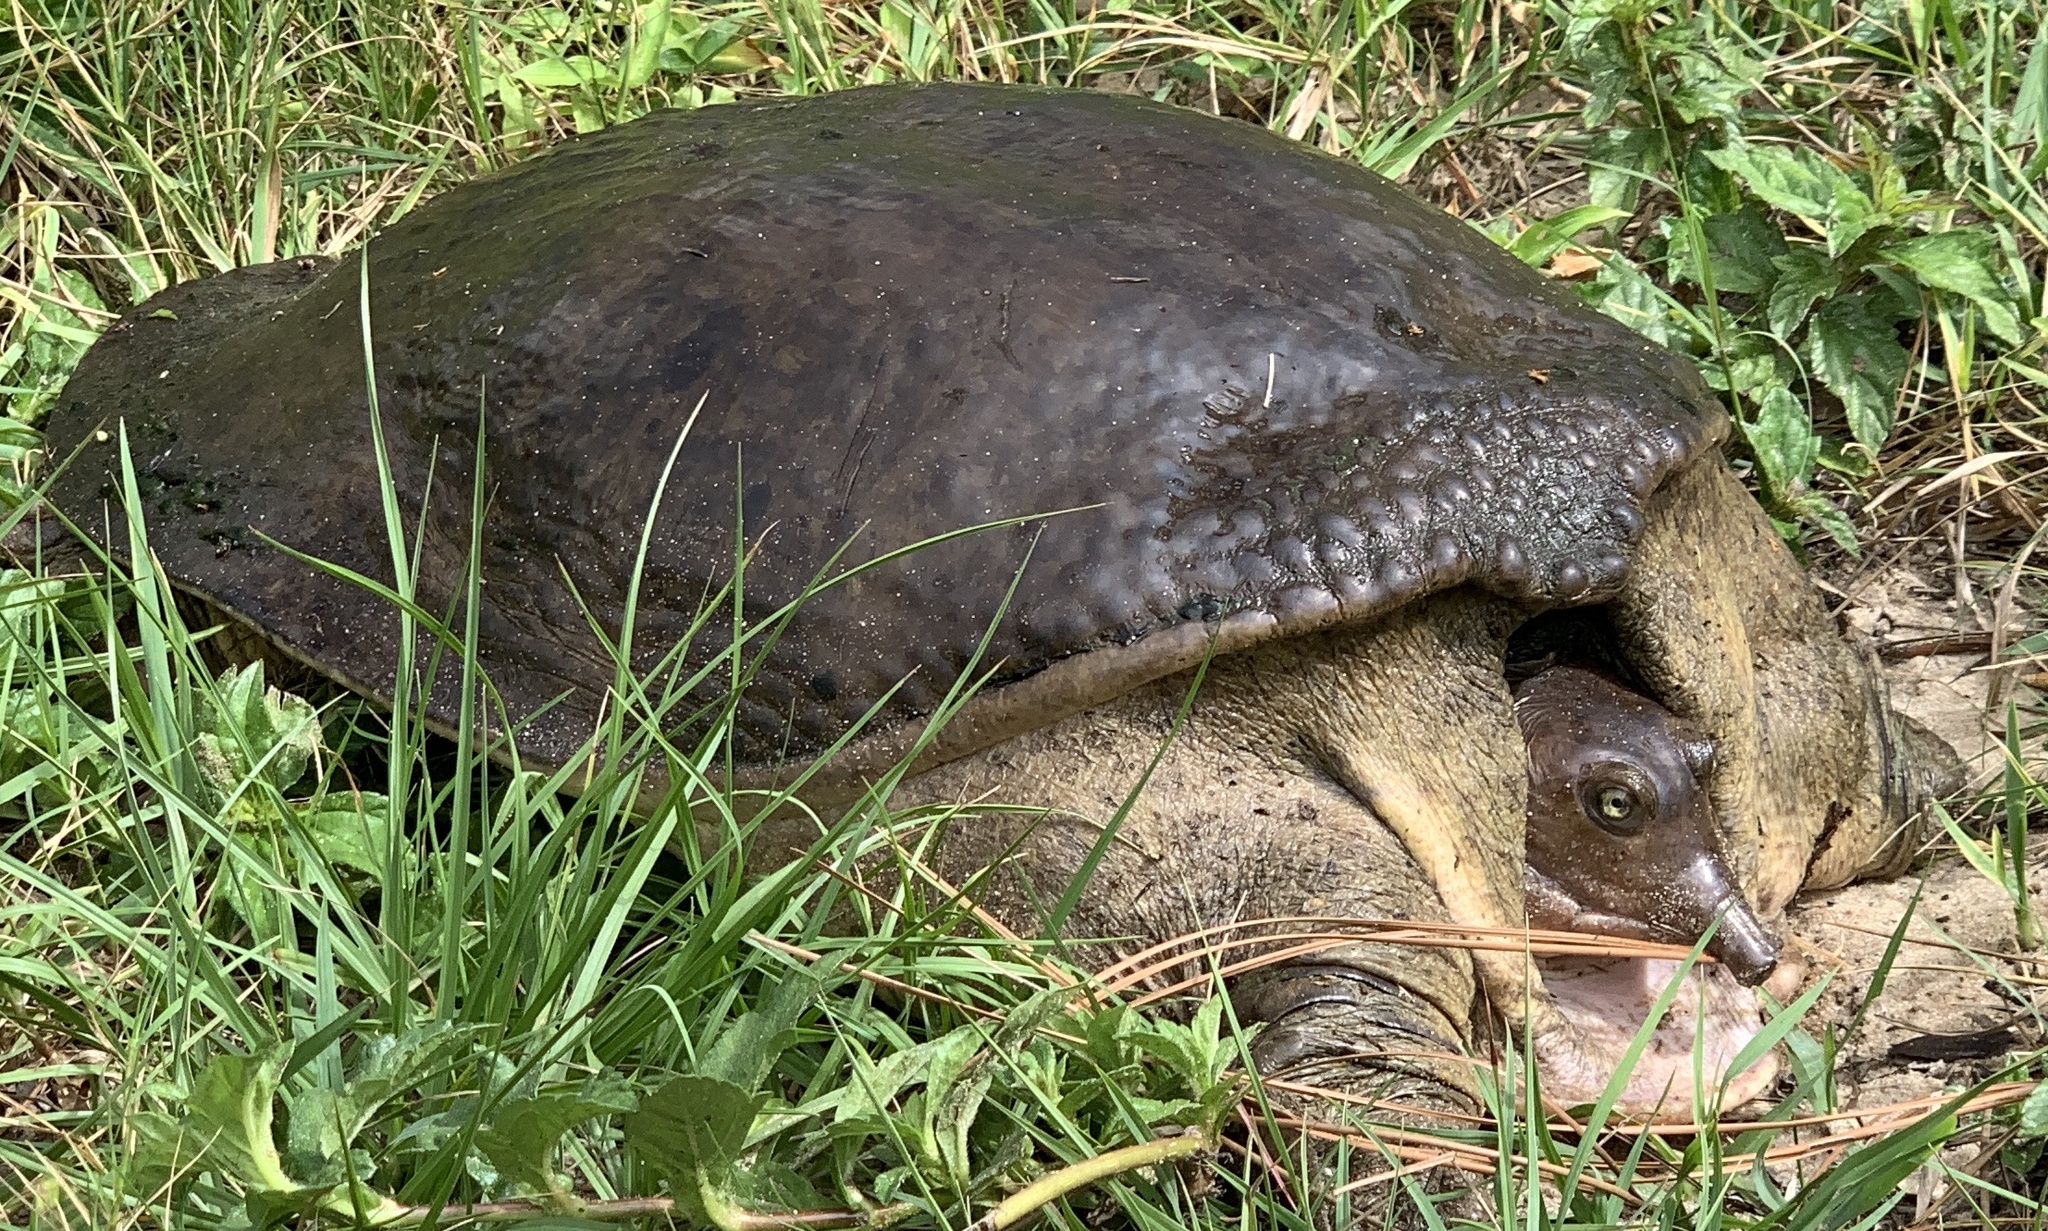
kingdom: Animalia
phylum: Chordata
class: Testudines
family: Trionychidae
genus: Apalone
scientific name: Apalone ferox
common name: Florida softshell turtle
